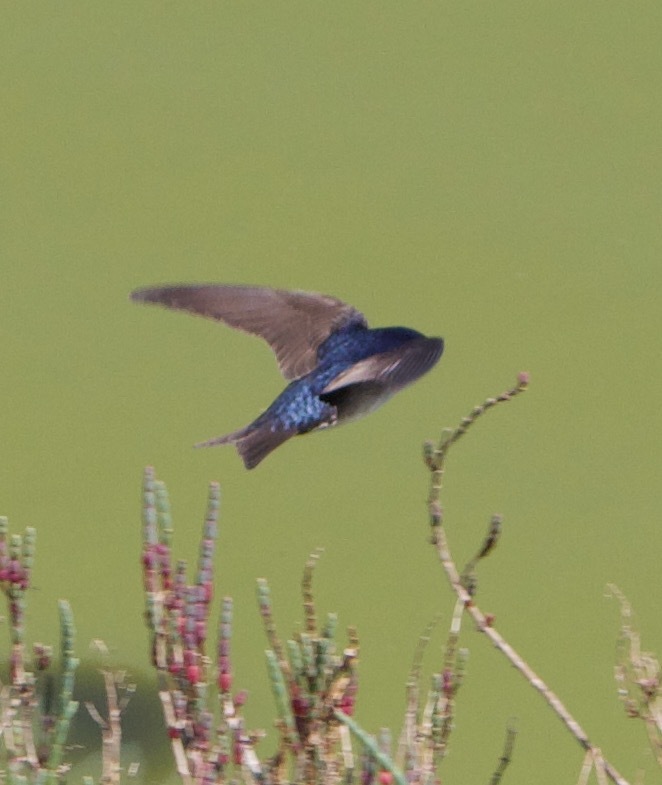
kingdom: Animalia
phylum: Chordata
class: Aves
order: Passeriformes
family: Hirundinidae
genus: Notiochelidon
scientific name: Notiochelidon cyanoleuca
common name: Blue-and-white swallow
